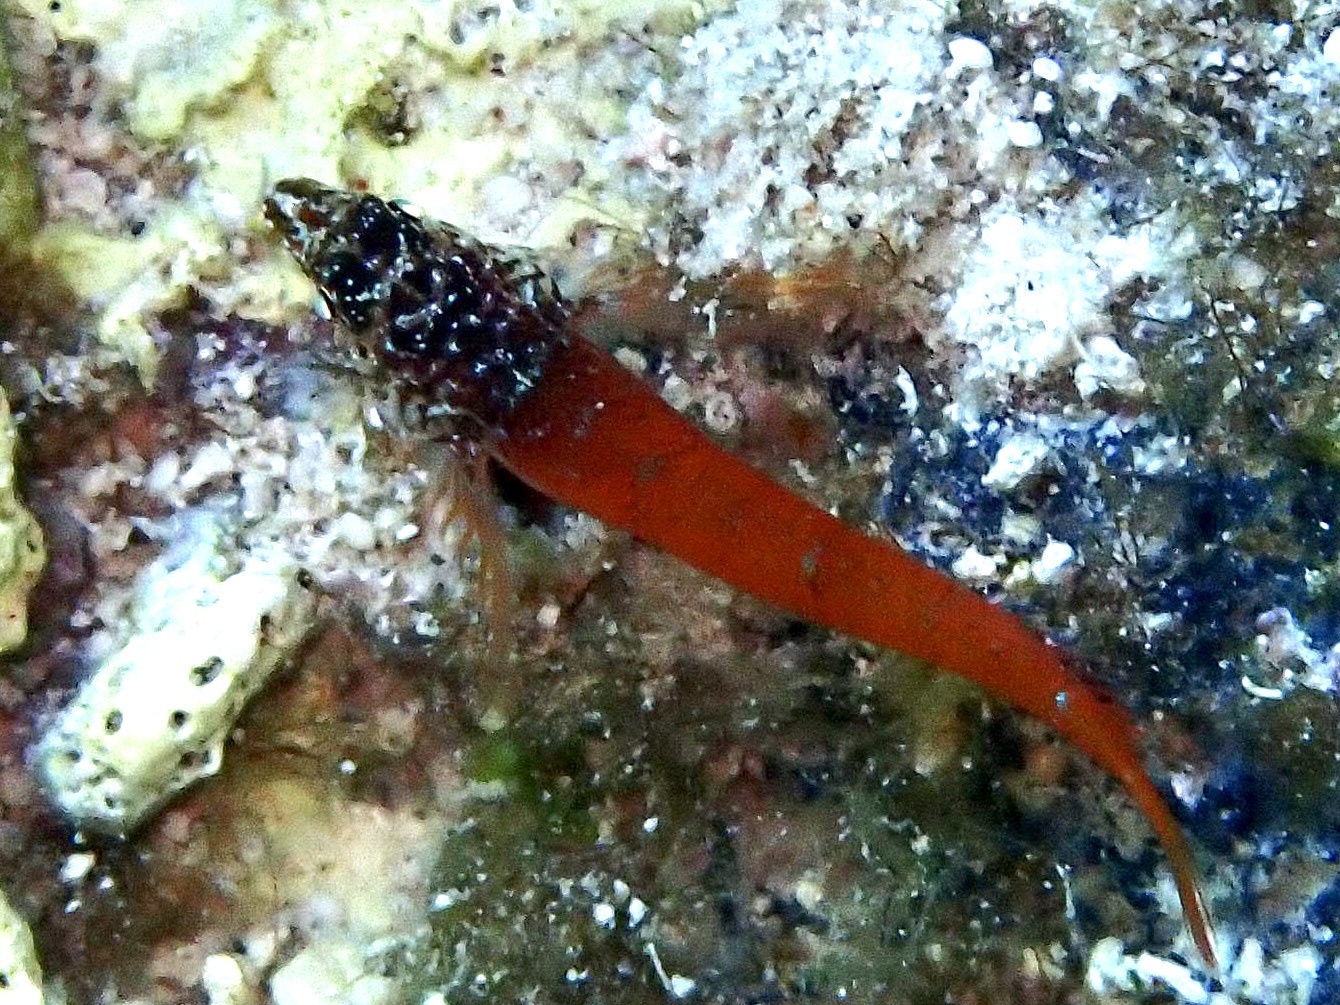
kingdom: Animalia
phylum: Chordata
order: Perciformes
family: Tripterygiidae
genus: Tripterygion
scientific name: Tripterygion melanurum
